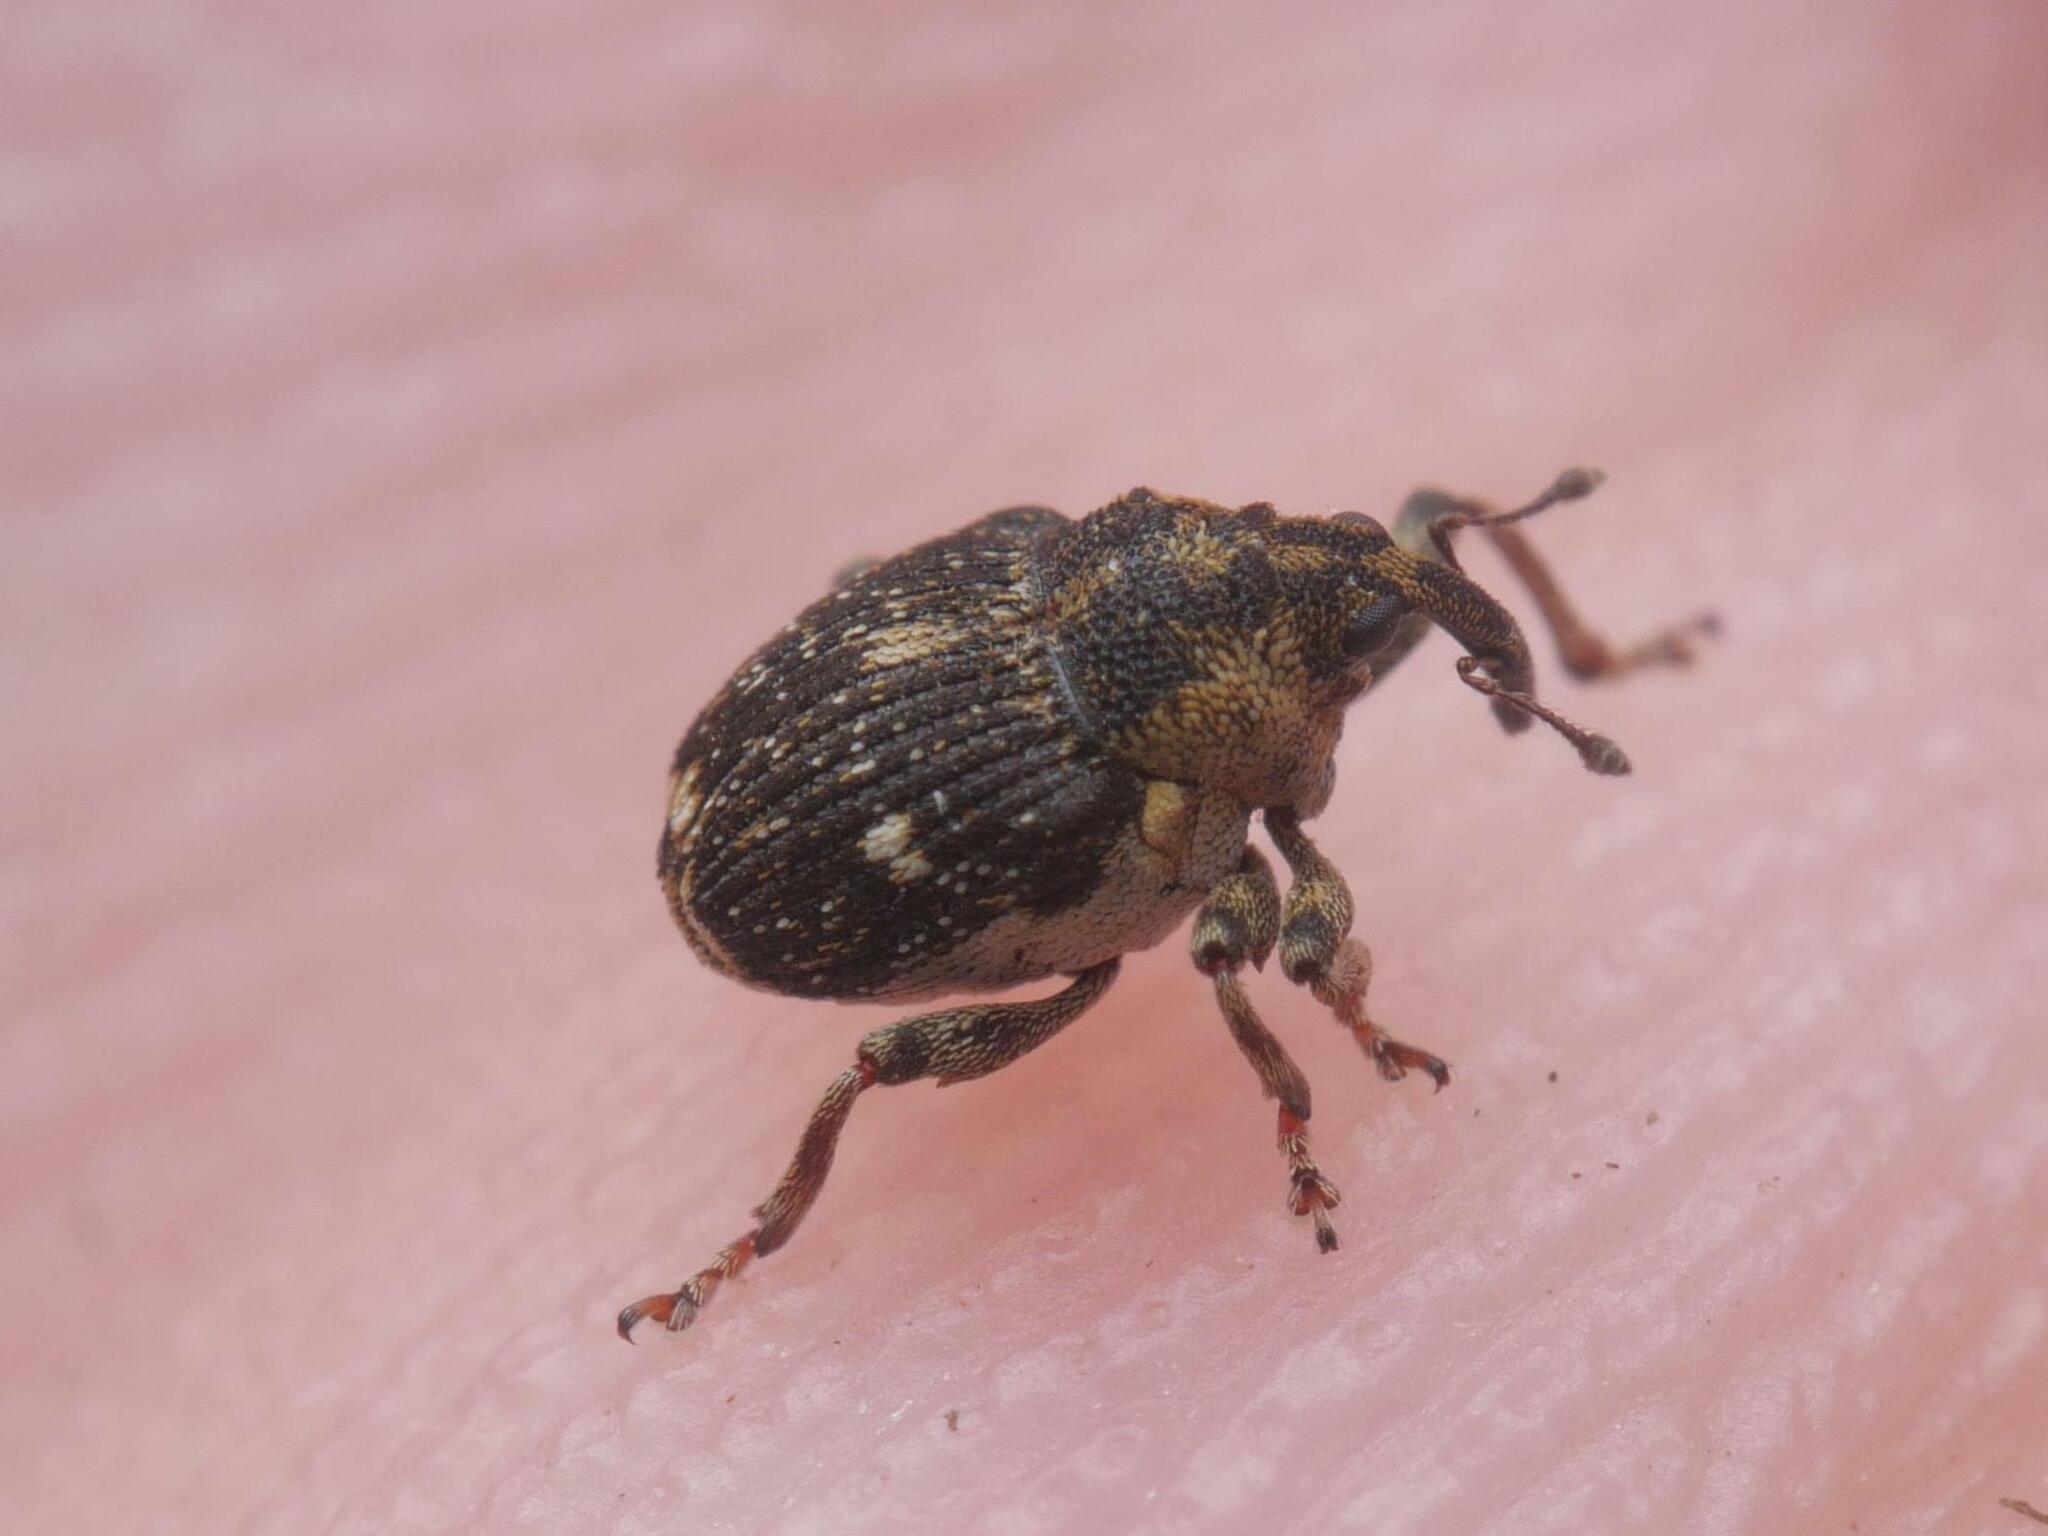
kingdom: Animalia
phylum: Arthropoda
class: Insecta
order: Coleoptera
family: Curculionidae
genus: Nedyus
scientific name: Nedyus quadrimaculatus
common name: Small nettle weevil
